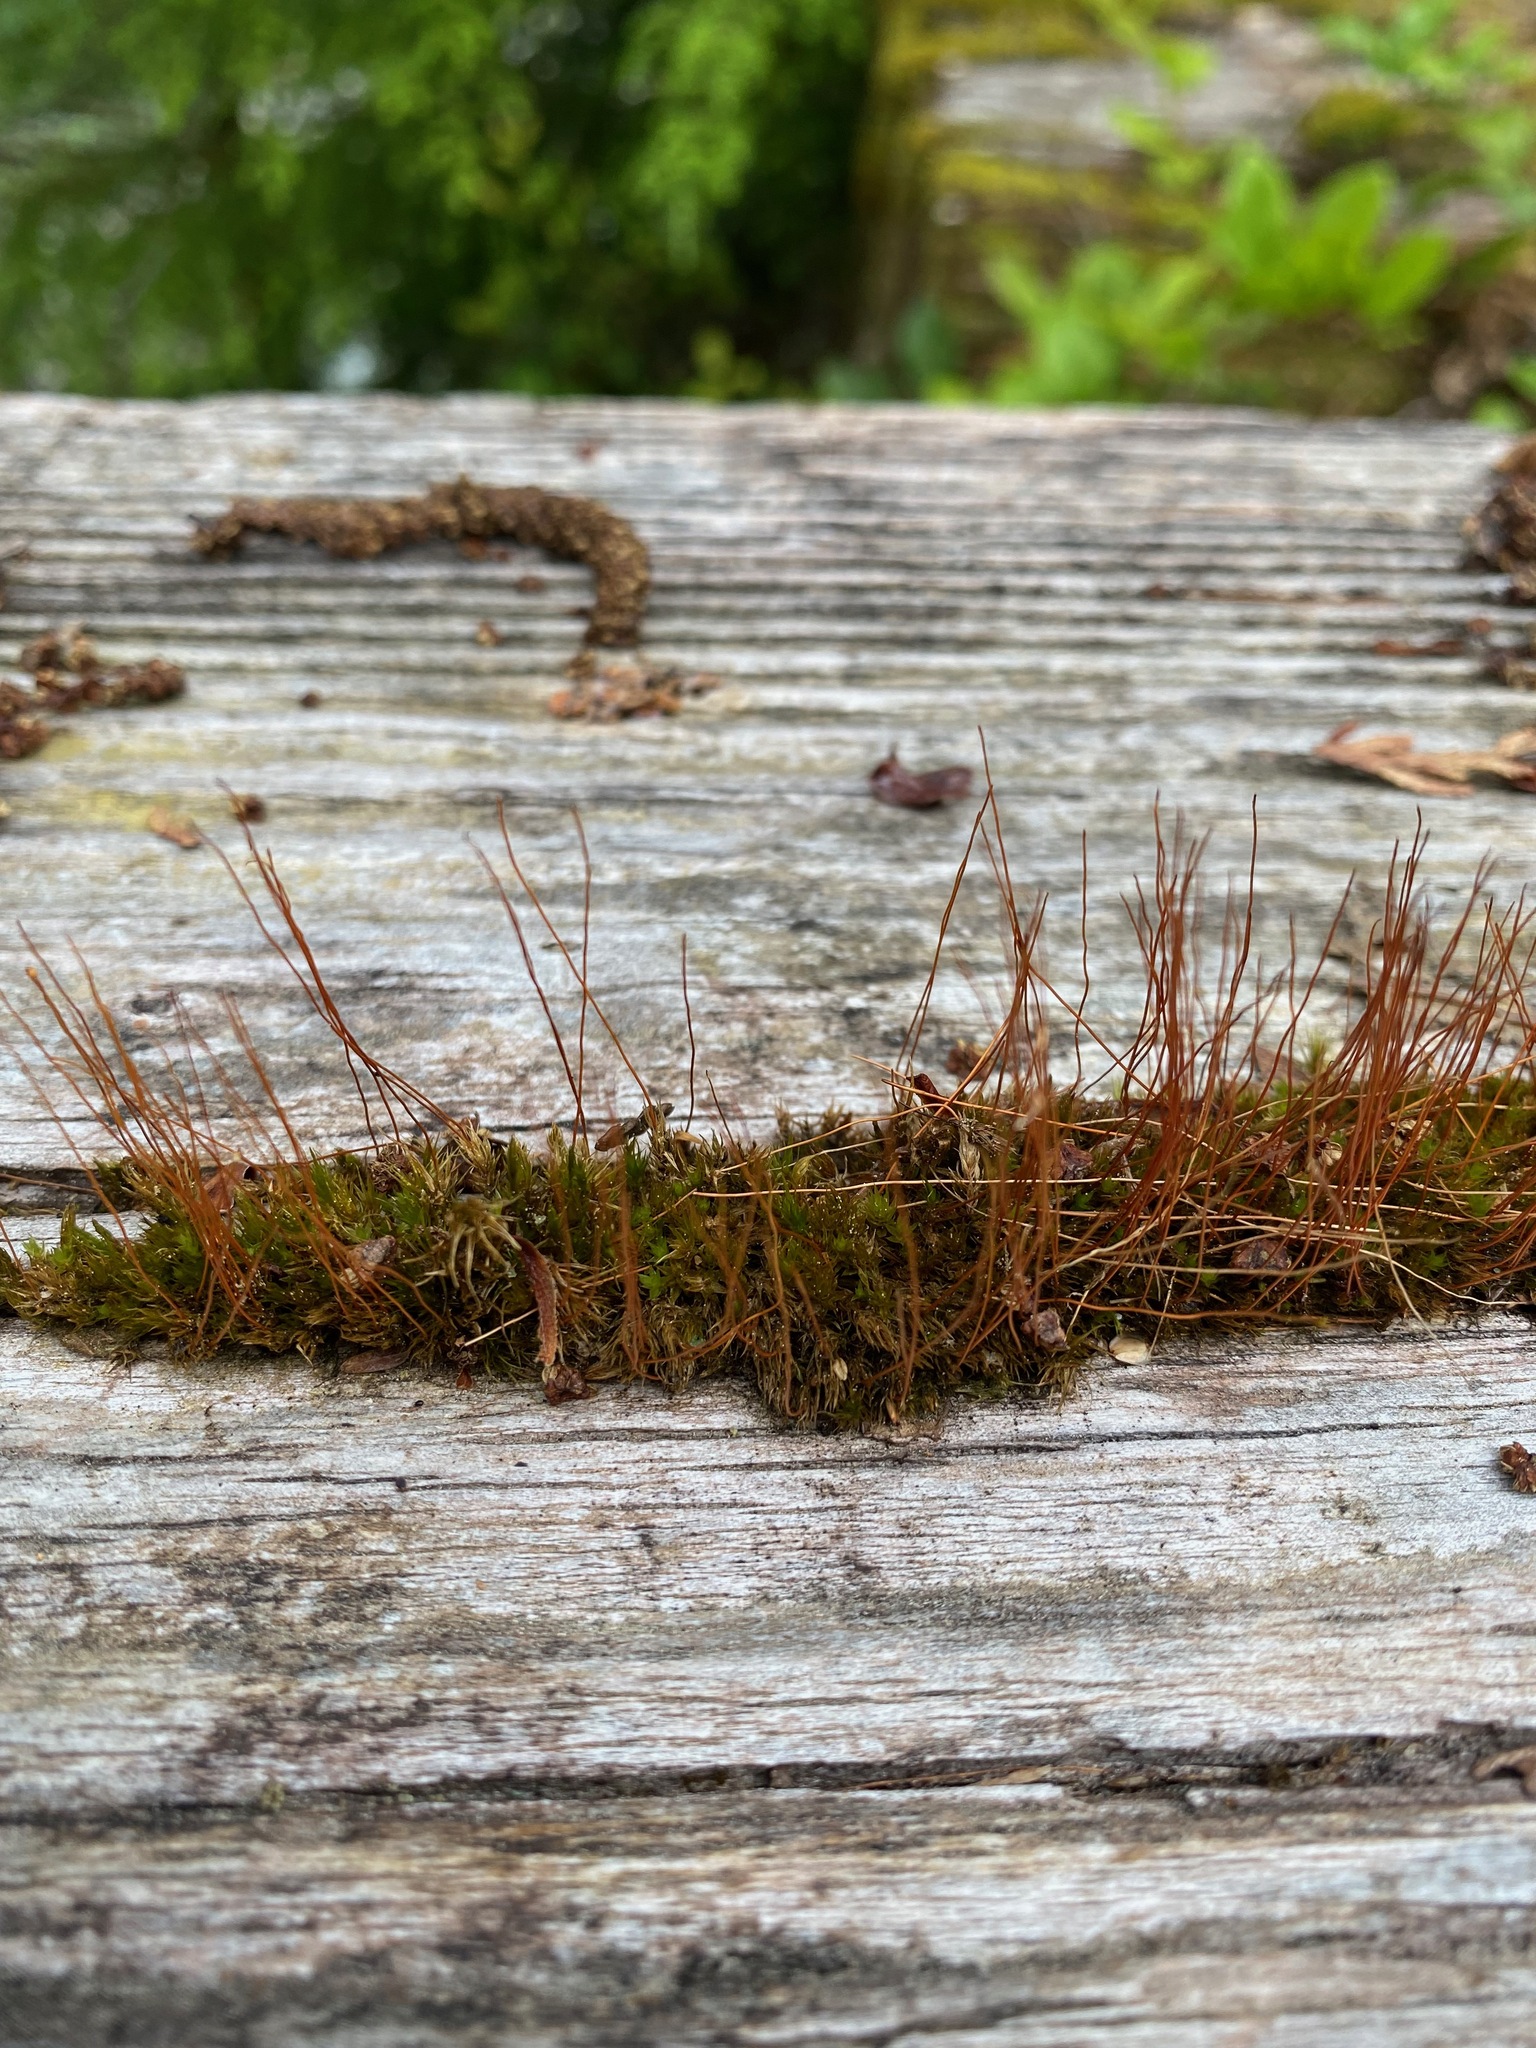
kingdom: Plantae
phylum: Bryophyta
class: Bryopsida
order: Dicranales
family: Ditrichaceae
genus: Ceratodon
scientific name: Ceratodon purpureus
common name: Redshank
